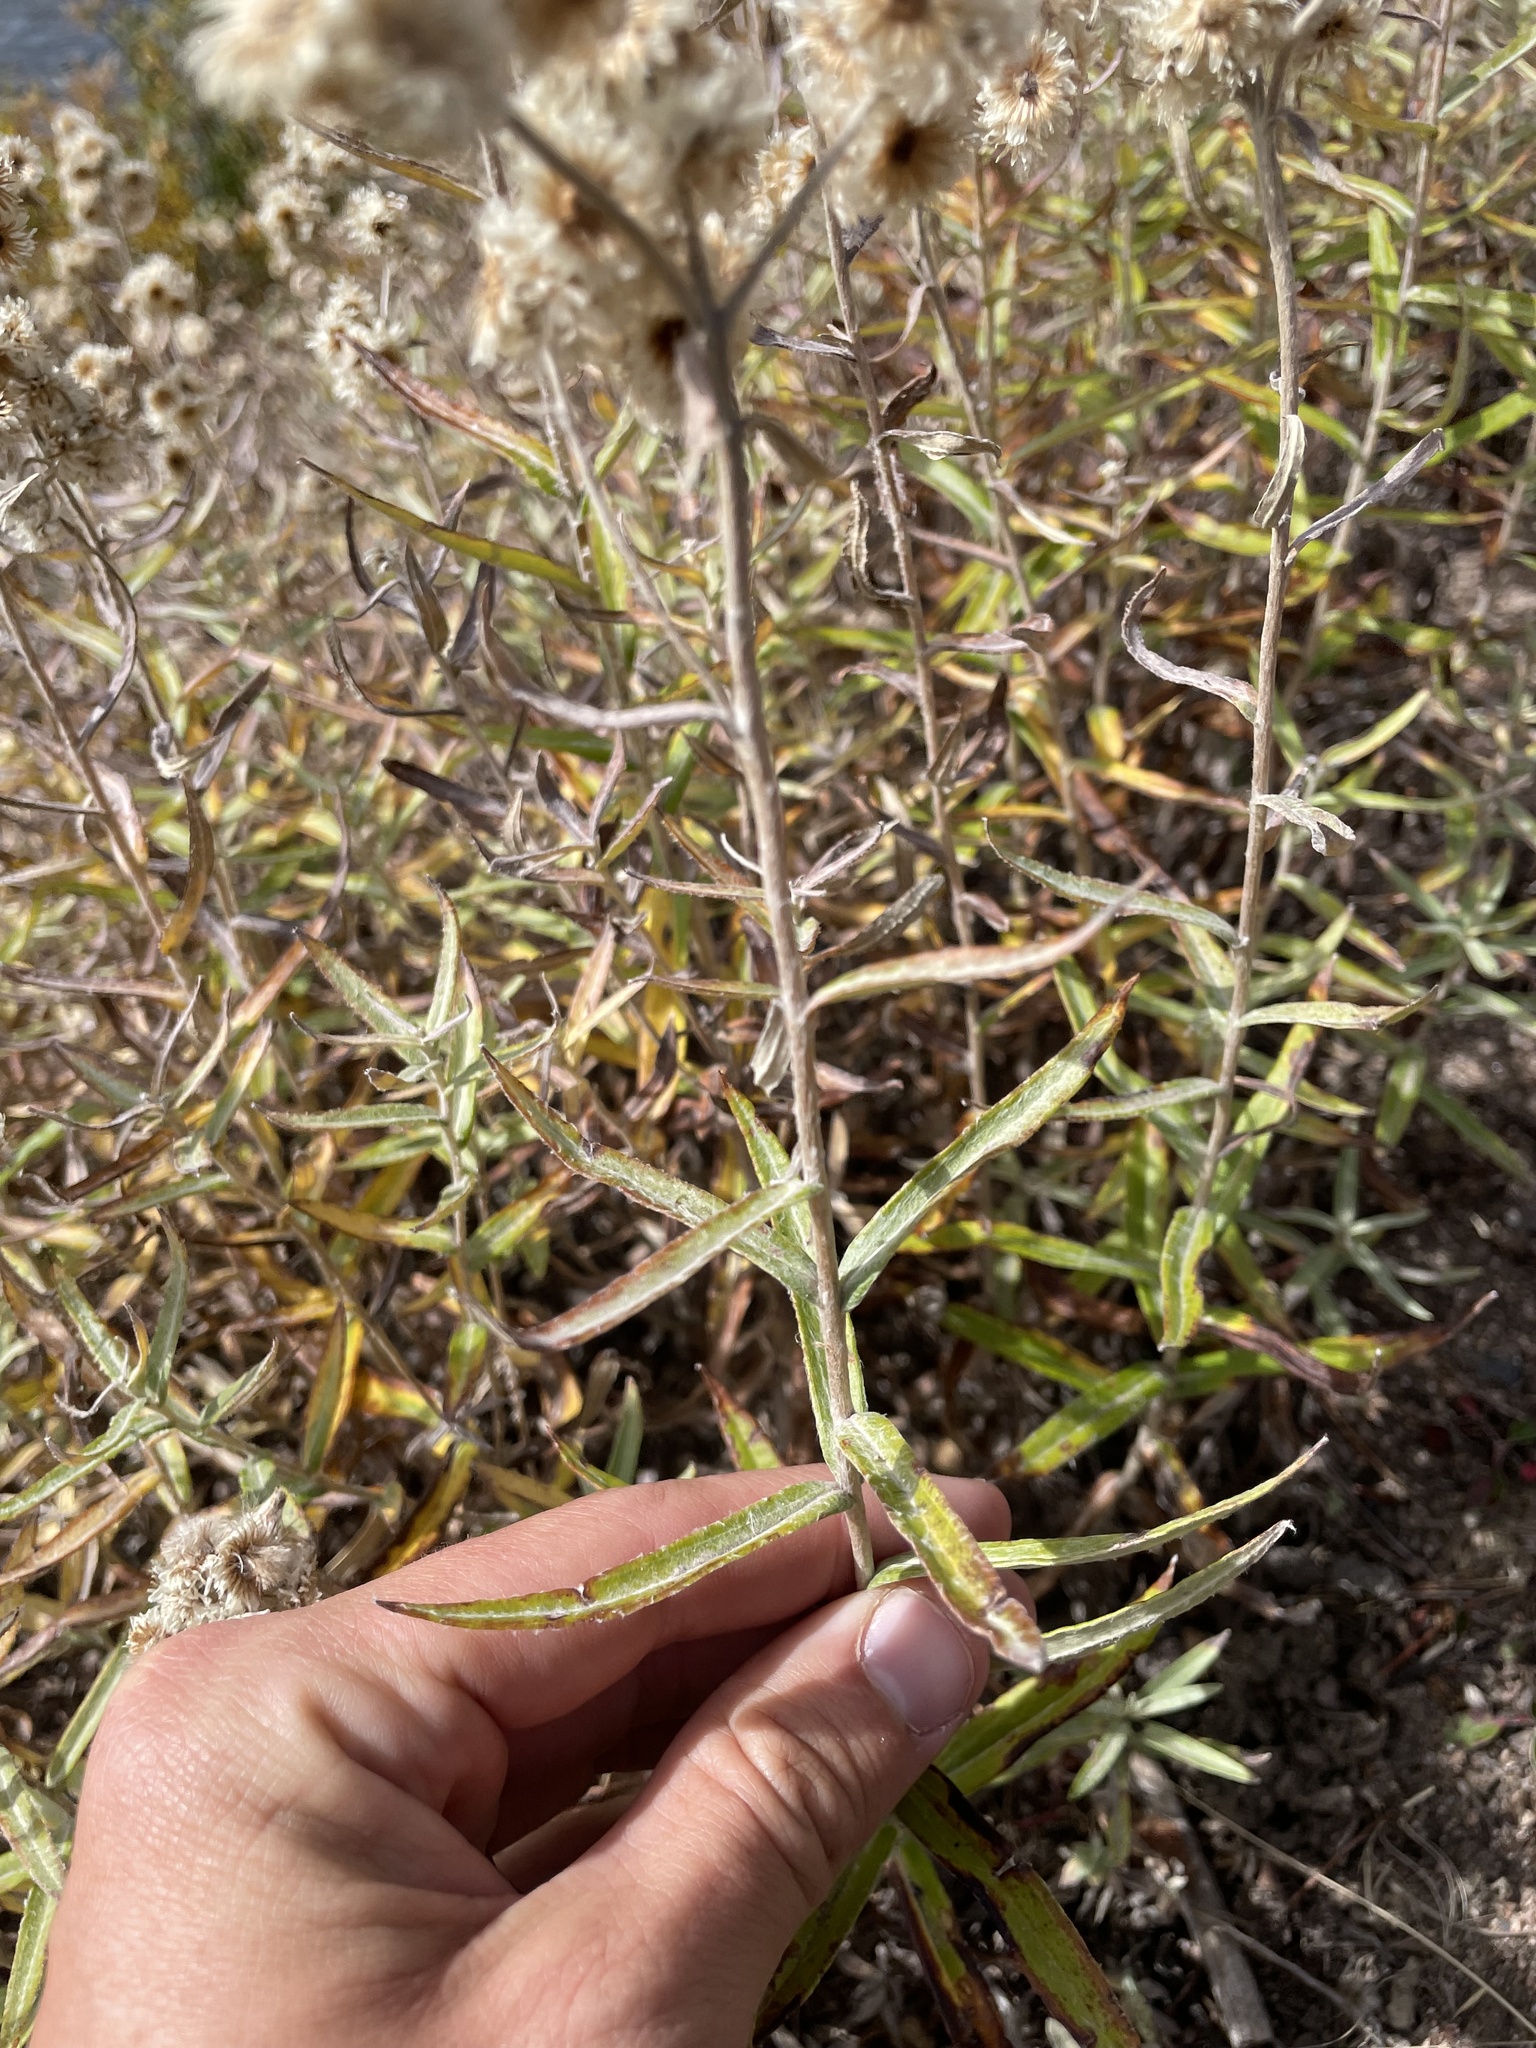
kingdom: Plantae
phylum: Tracheophyta
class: Magnoliopsida
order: Asterales
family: Asteraceae
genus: Anaphalis
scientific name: Anaphalis margaritacea
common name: Pearly everlasting
